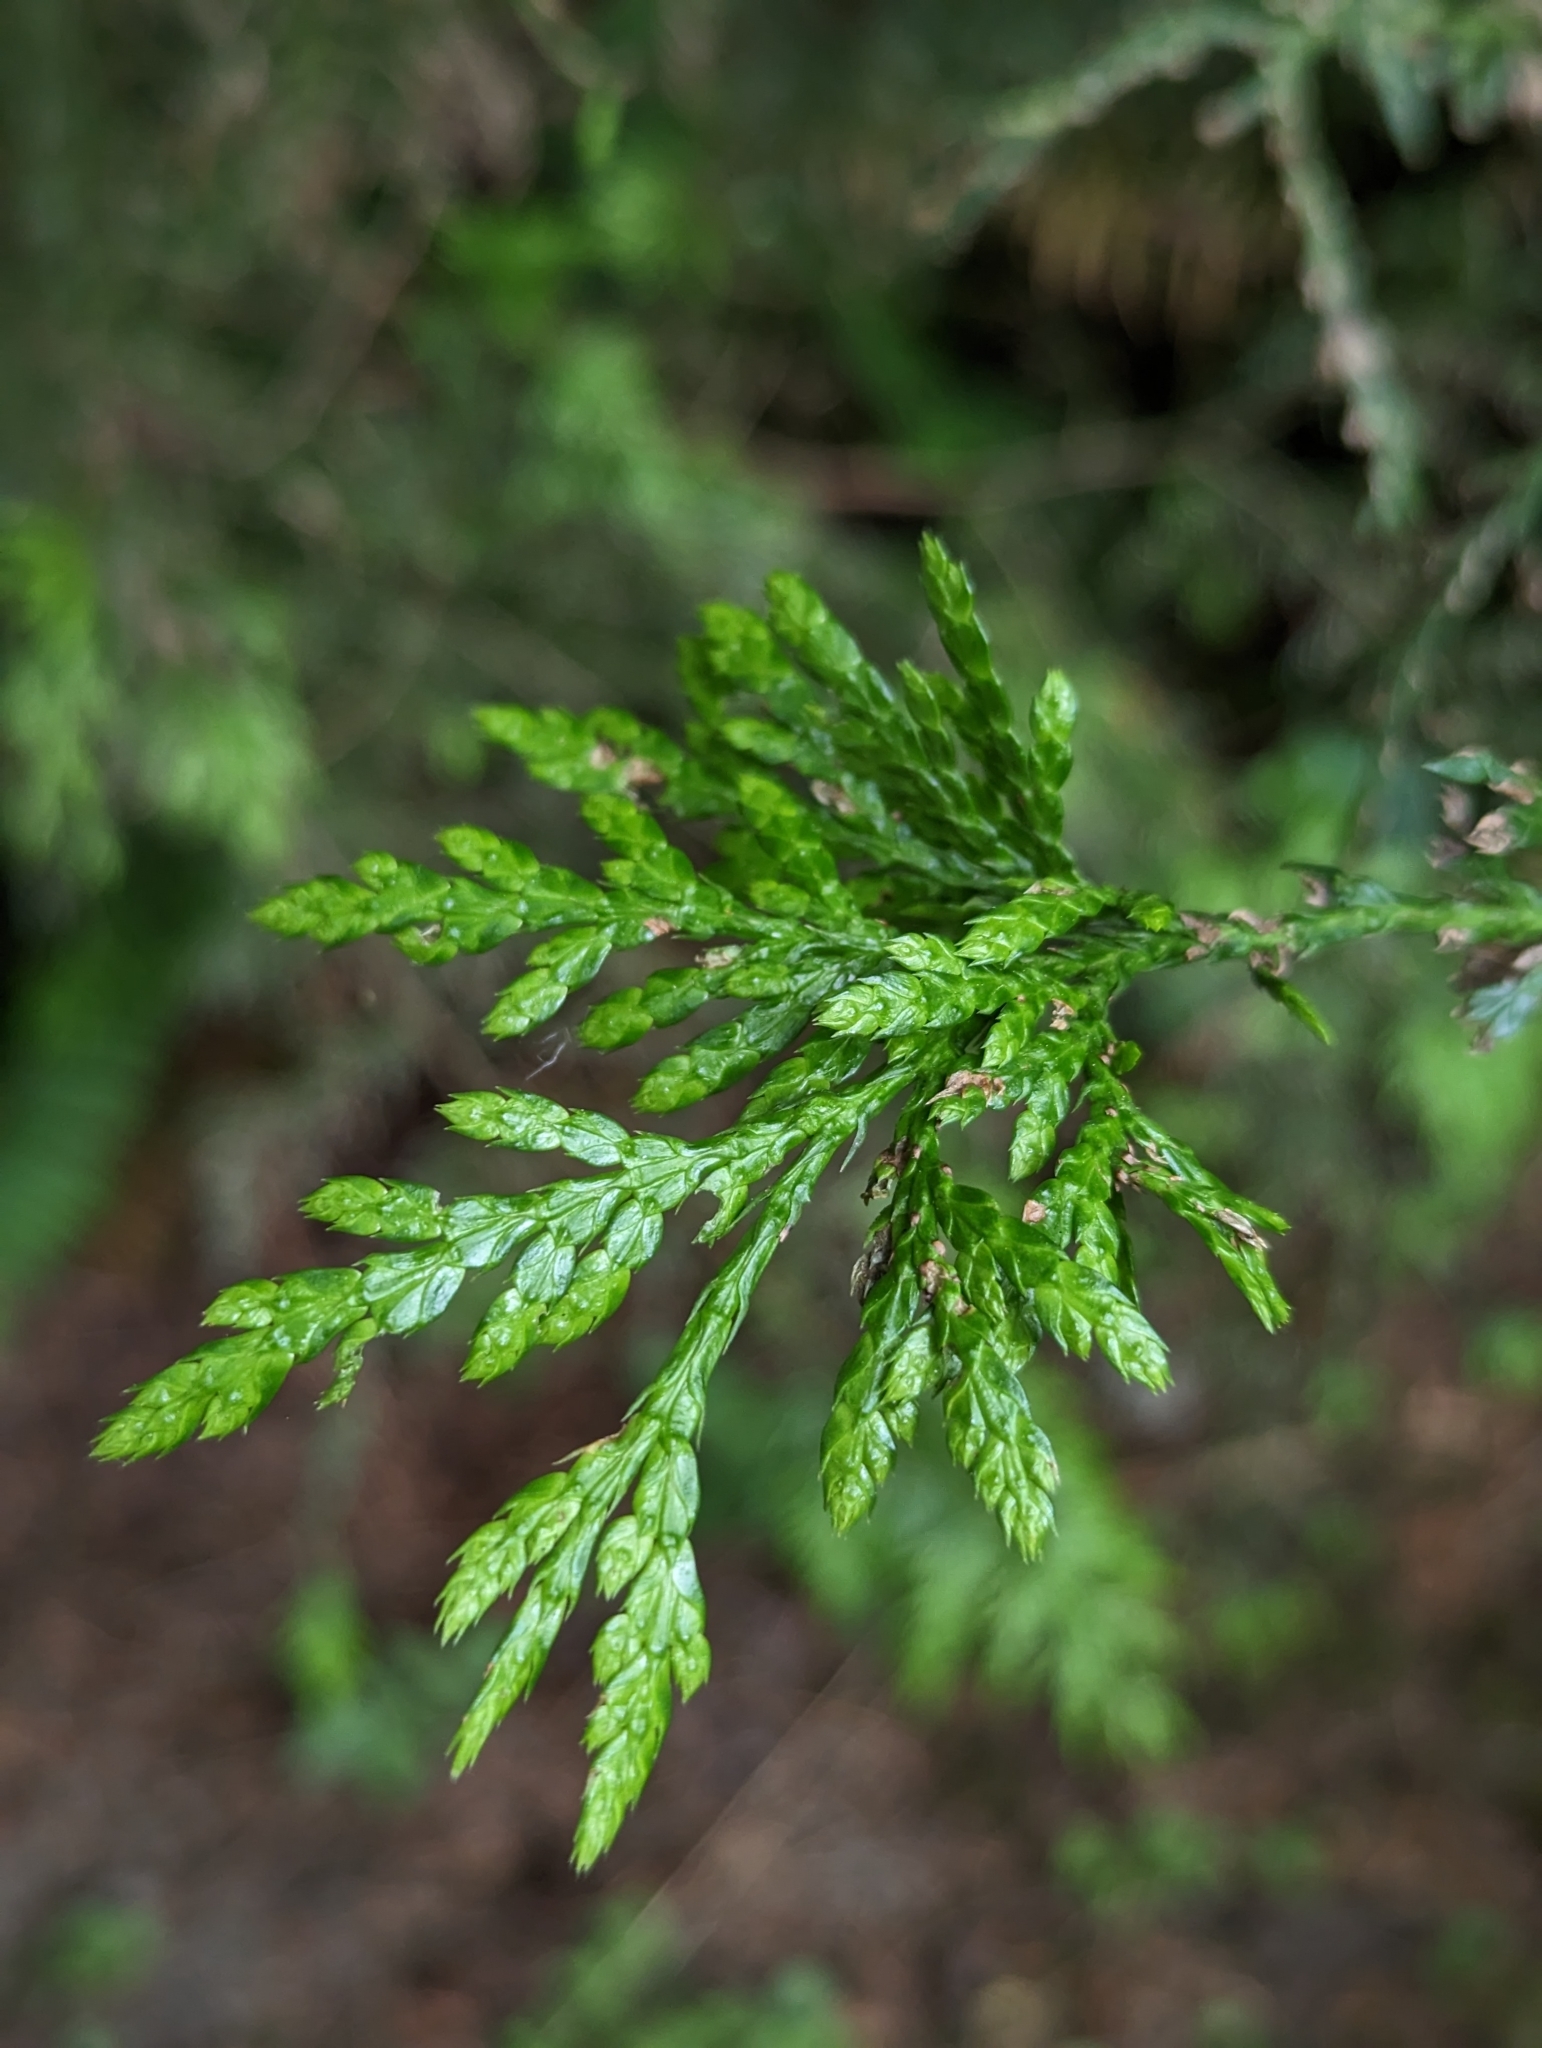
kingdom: Plantae
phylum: Tracheophyta
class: Pinopsida
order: Pinales
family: Cupressaceae
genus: Thuja
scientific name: Thuja plicata
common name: Western red-cedar
